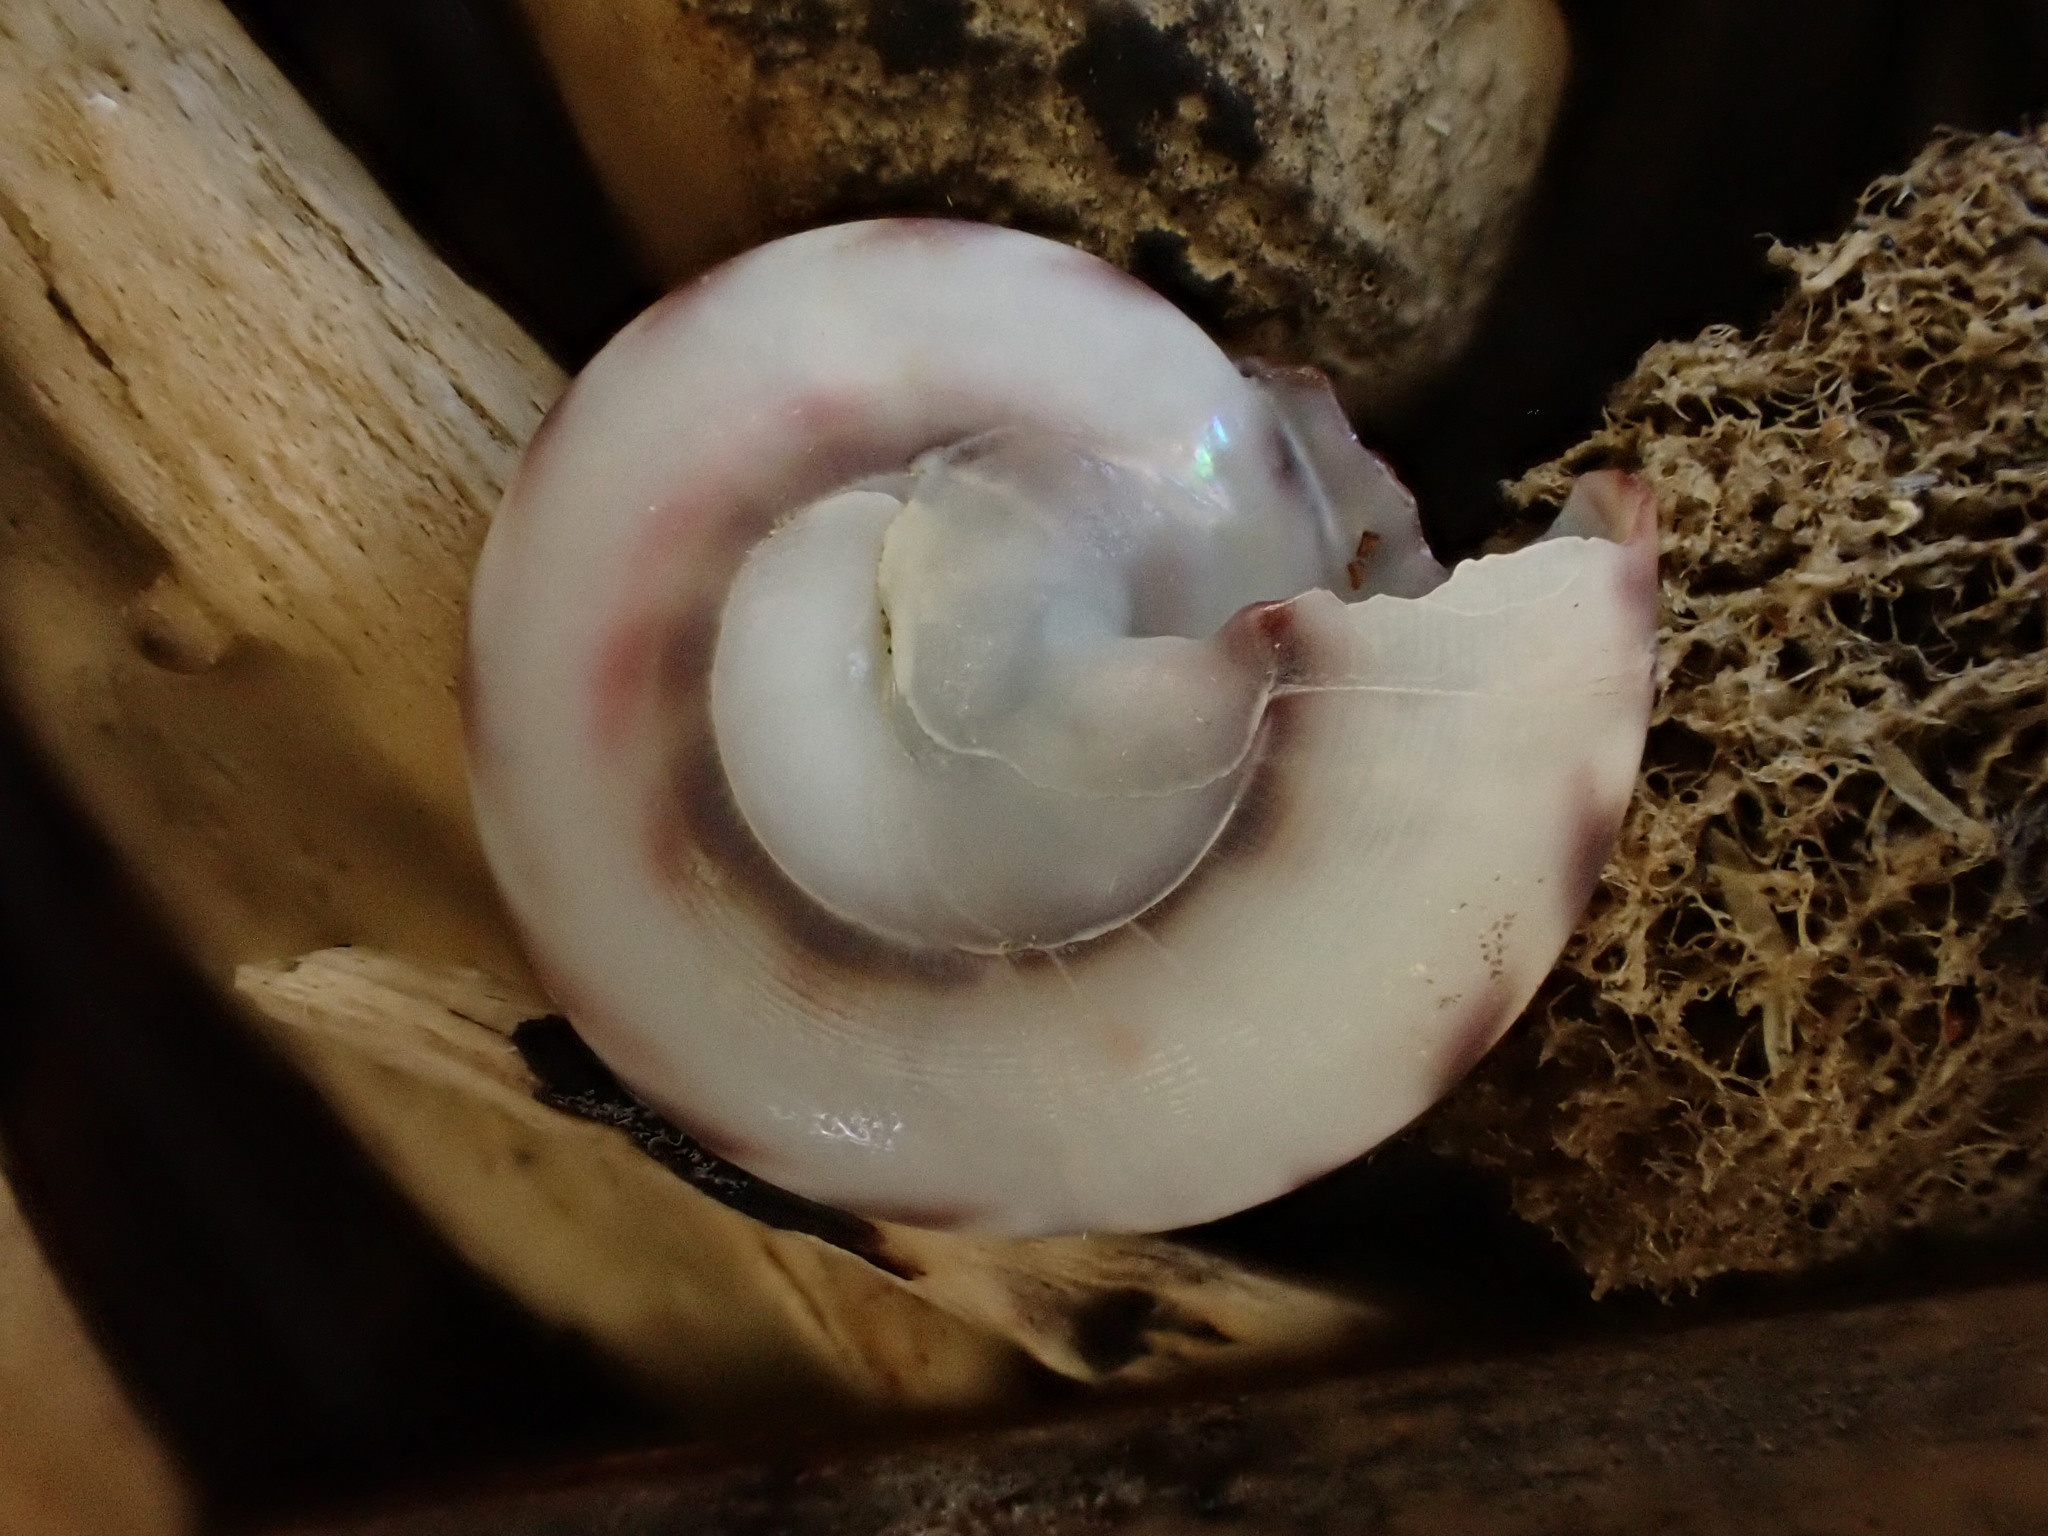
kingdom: Animalia
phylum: Mollusca
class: Gastropoda
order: Trochida
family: Trochidae
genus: Zethalia
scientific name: Zethalia zelandica
